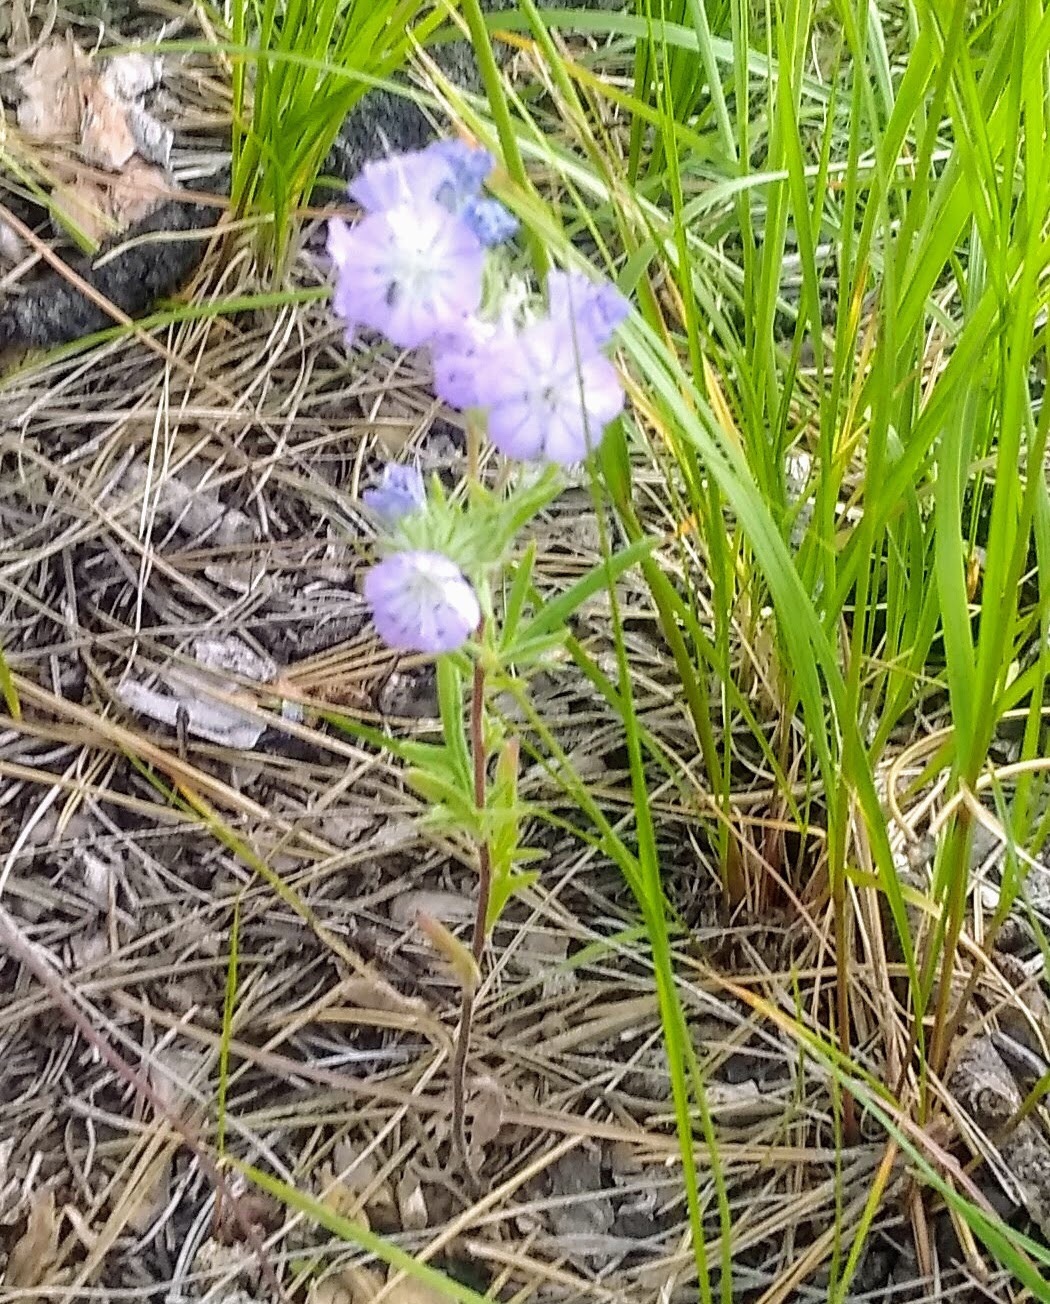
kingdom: Plantae
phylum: Tracheophyta
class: Magnoliopsida
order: Boraginales
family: Hydrophyllaceae
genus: Phacelia
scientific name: Phacelia linearis
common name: Linear-leaved phacelia
